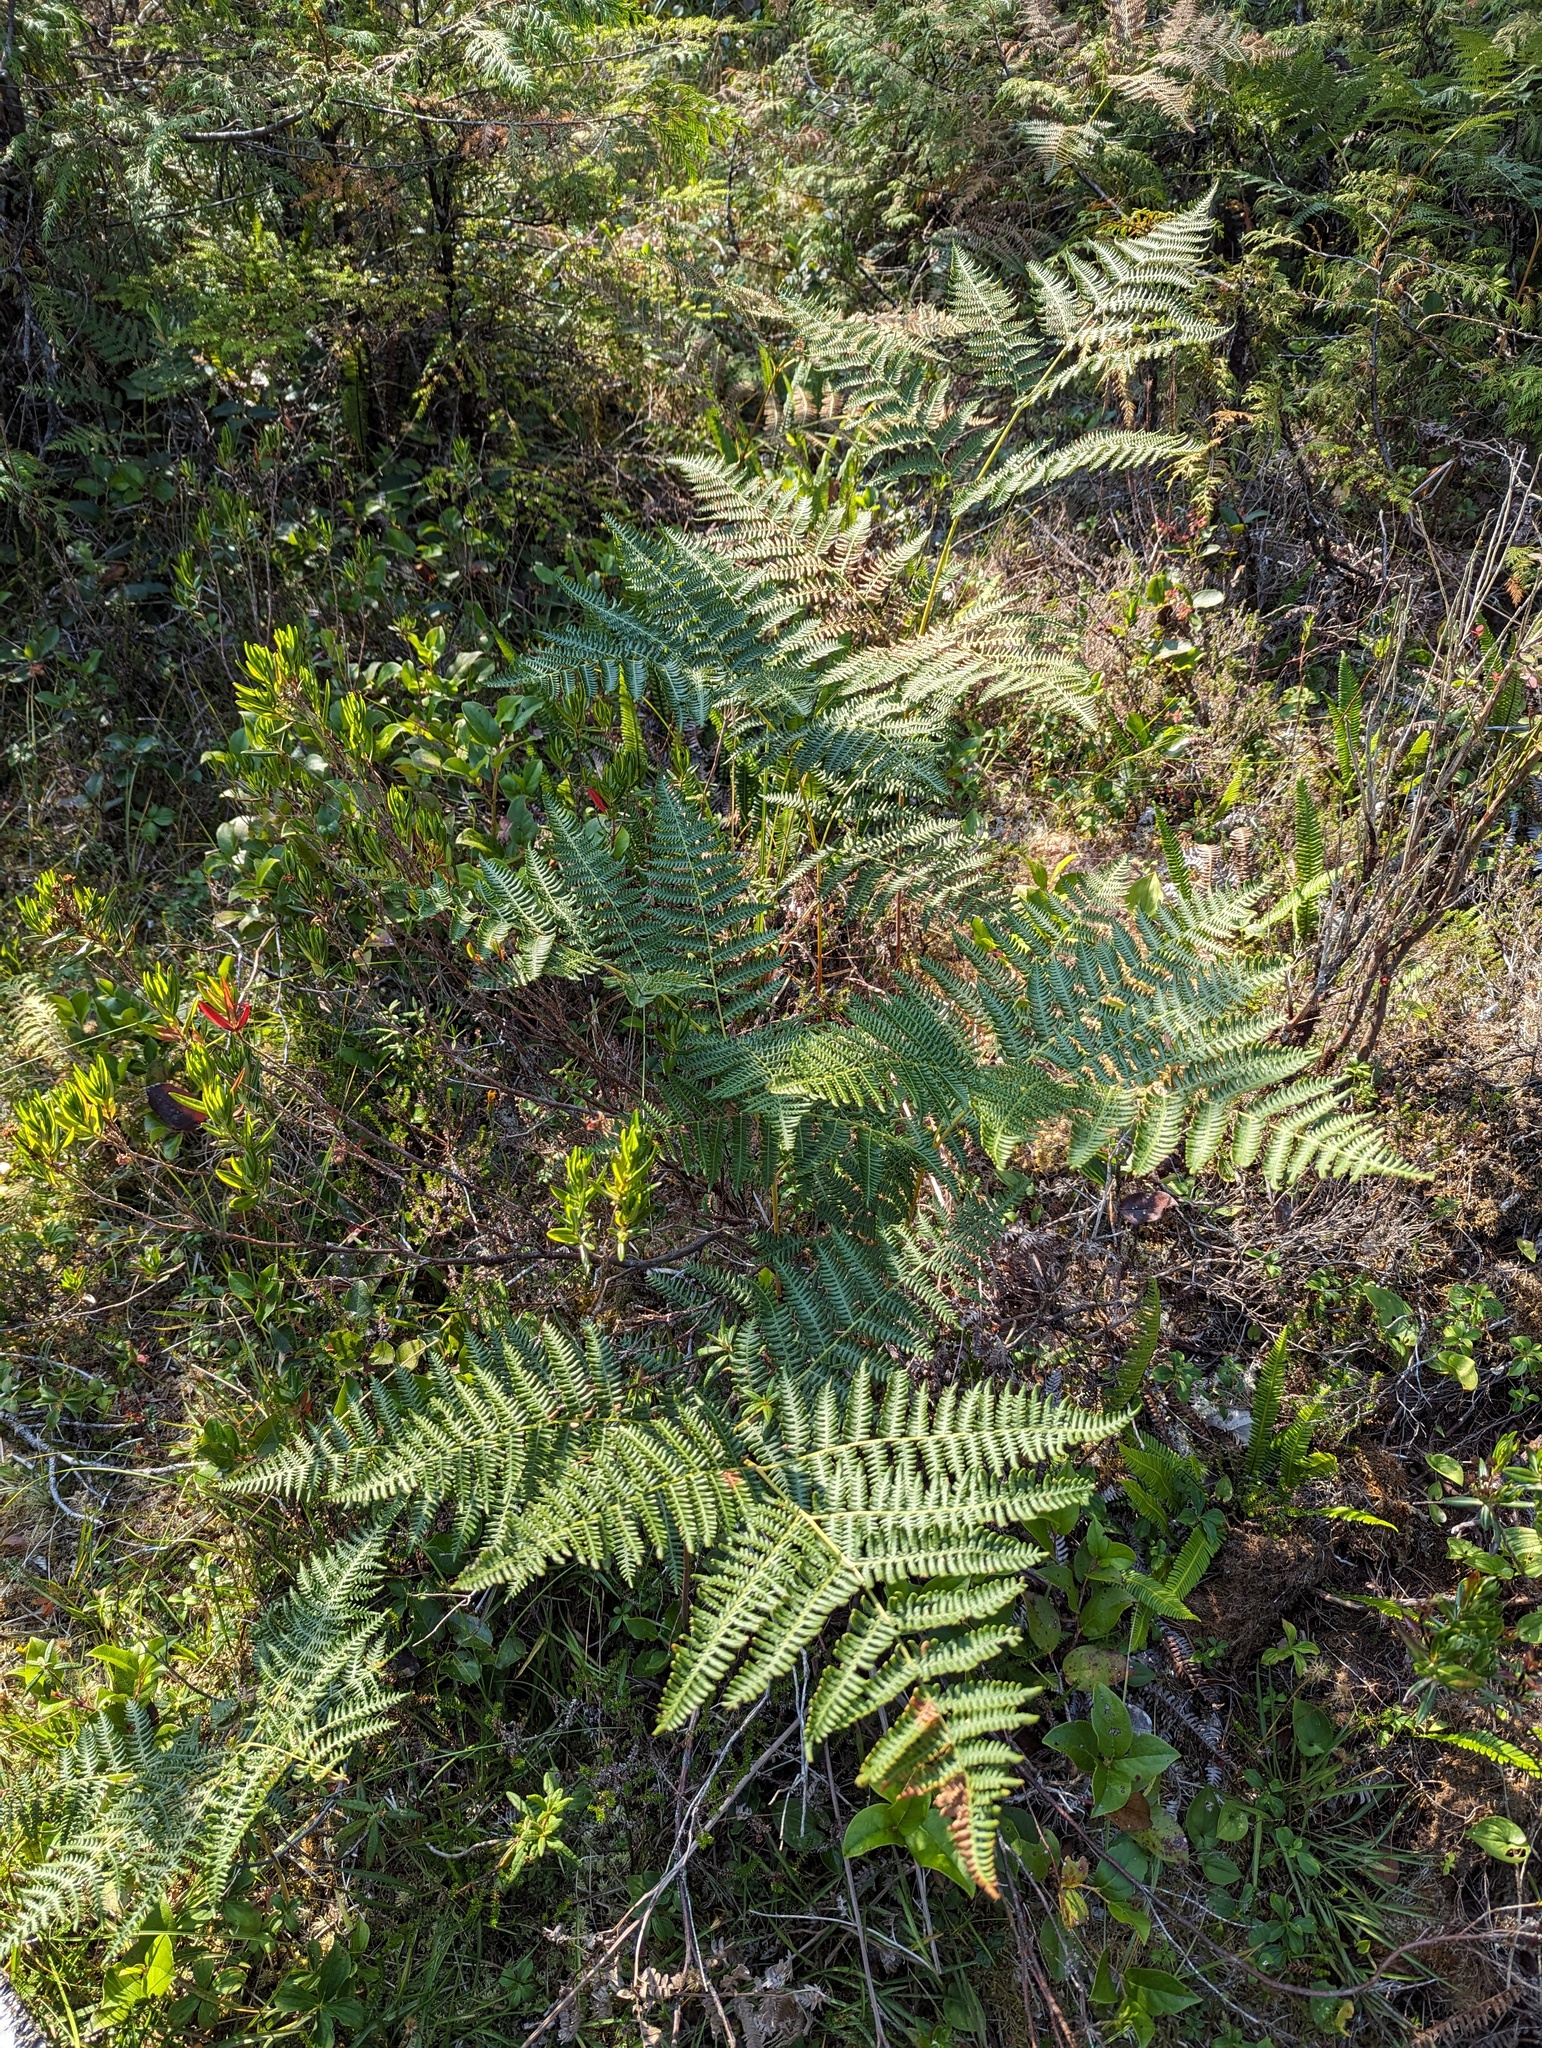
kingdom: Plantae
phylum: Tracheophyta
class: Polypodiopsida
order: Polypodiales
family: Dennstaedtiaceae
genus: Pteridium
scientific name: Pteridium aquilinum
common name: Bracken
